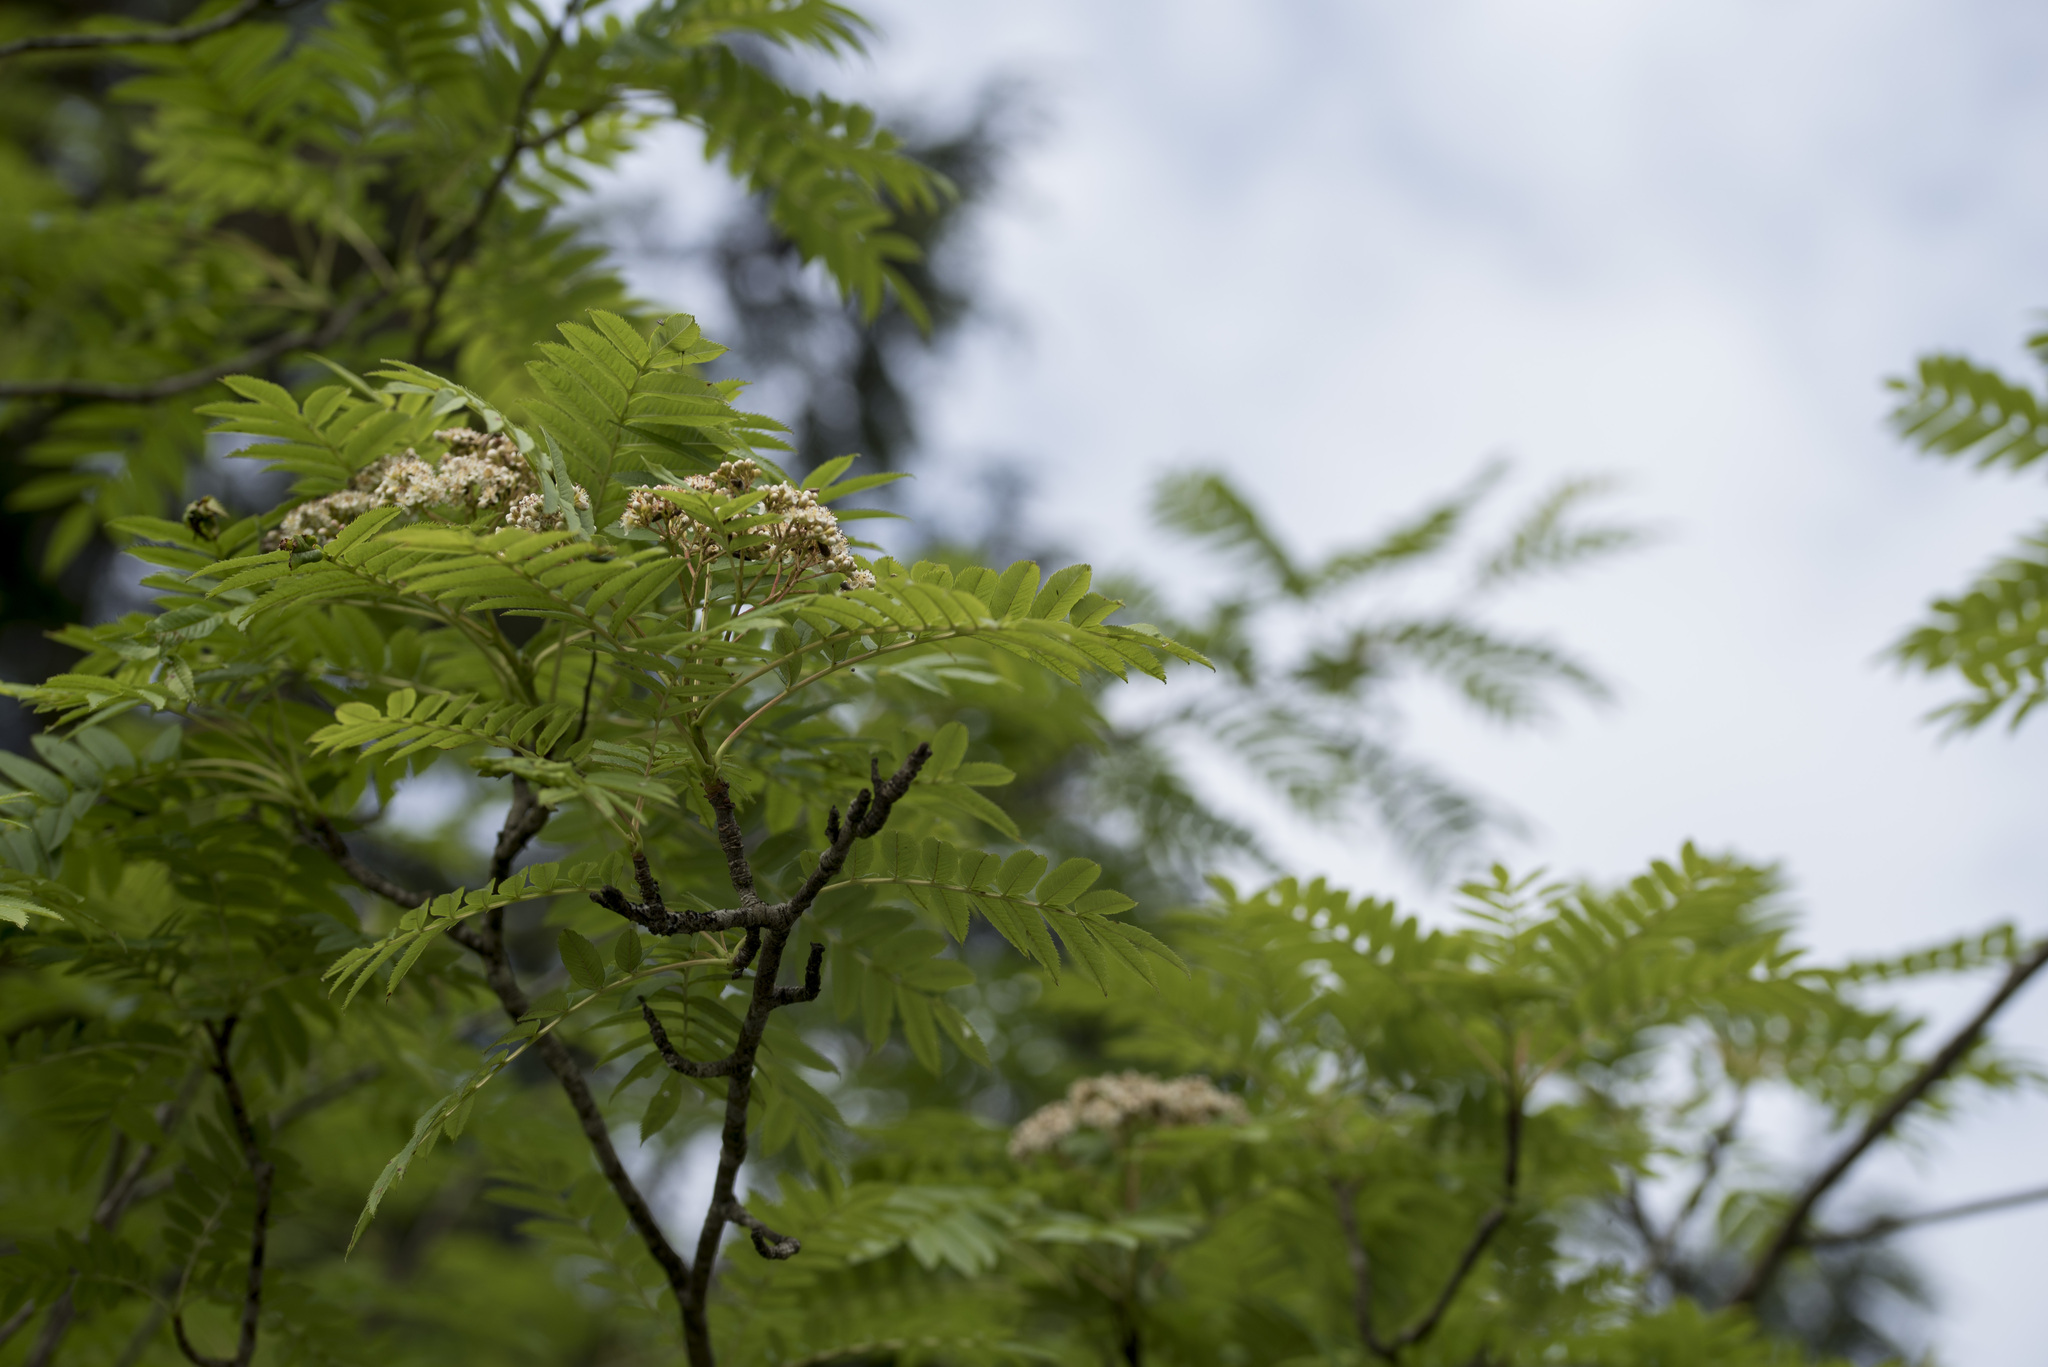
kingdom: Plantae
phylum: Tracheophyta
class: Magnoliopsida
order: Rosales
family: Rosaceae
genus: Sorbus
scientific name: Sorbus randaiensis
